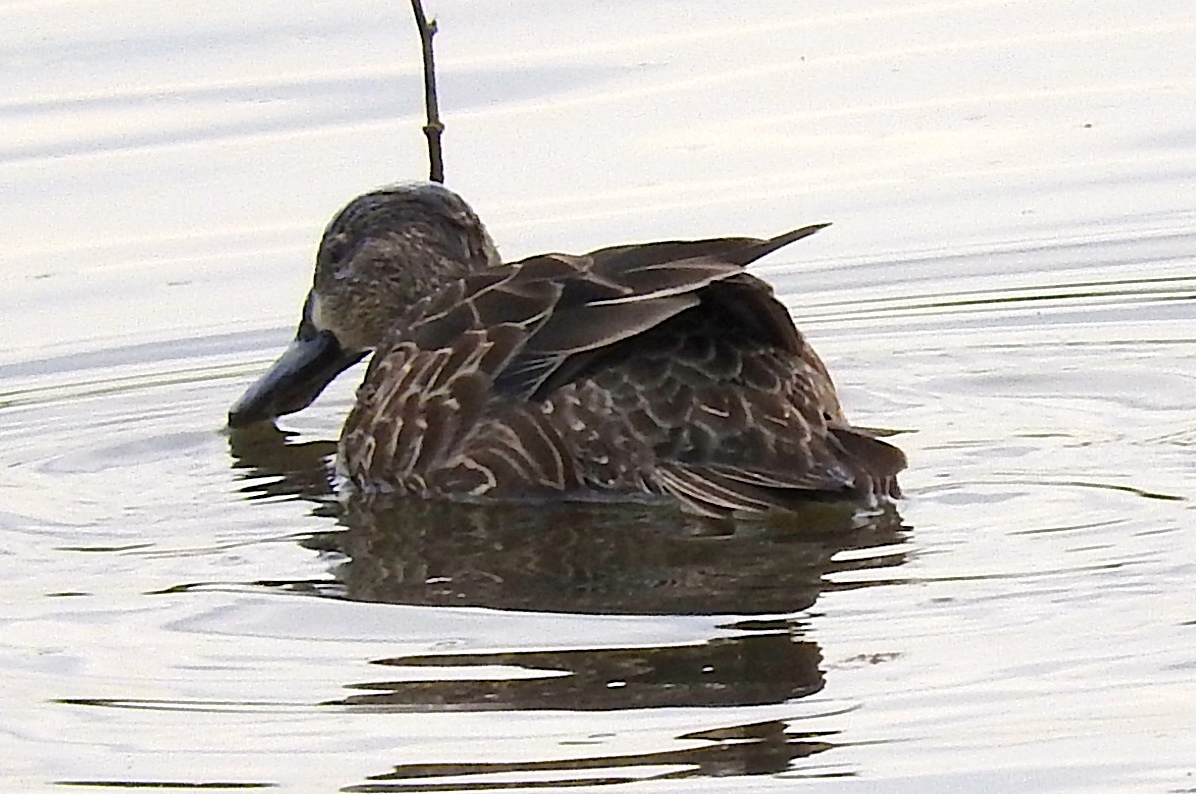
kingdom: Animalia
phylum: Chordata
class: Aves
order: Anseriformes
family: Anatidae
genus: Spatula
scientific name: Spatula discors
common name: Blue-winged teal
